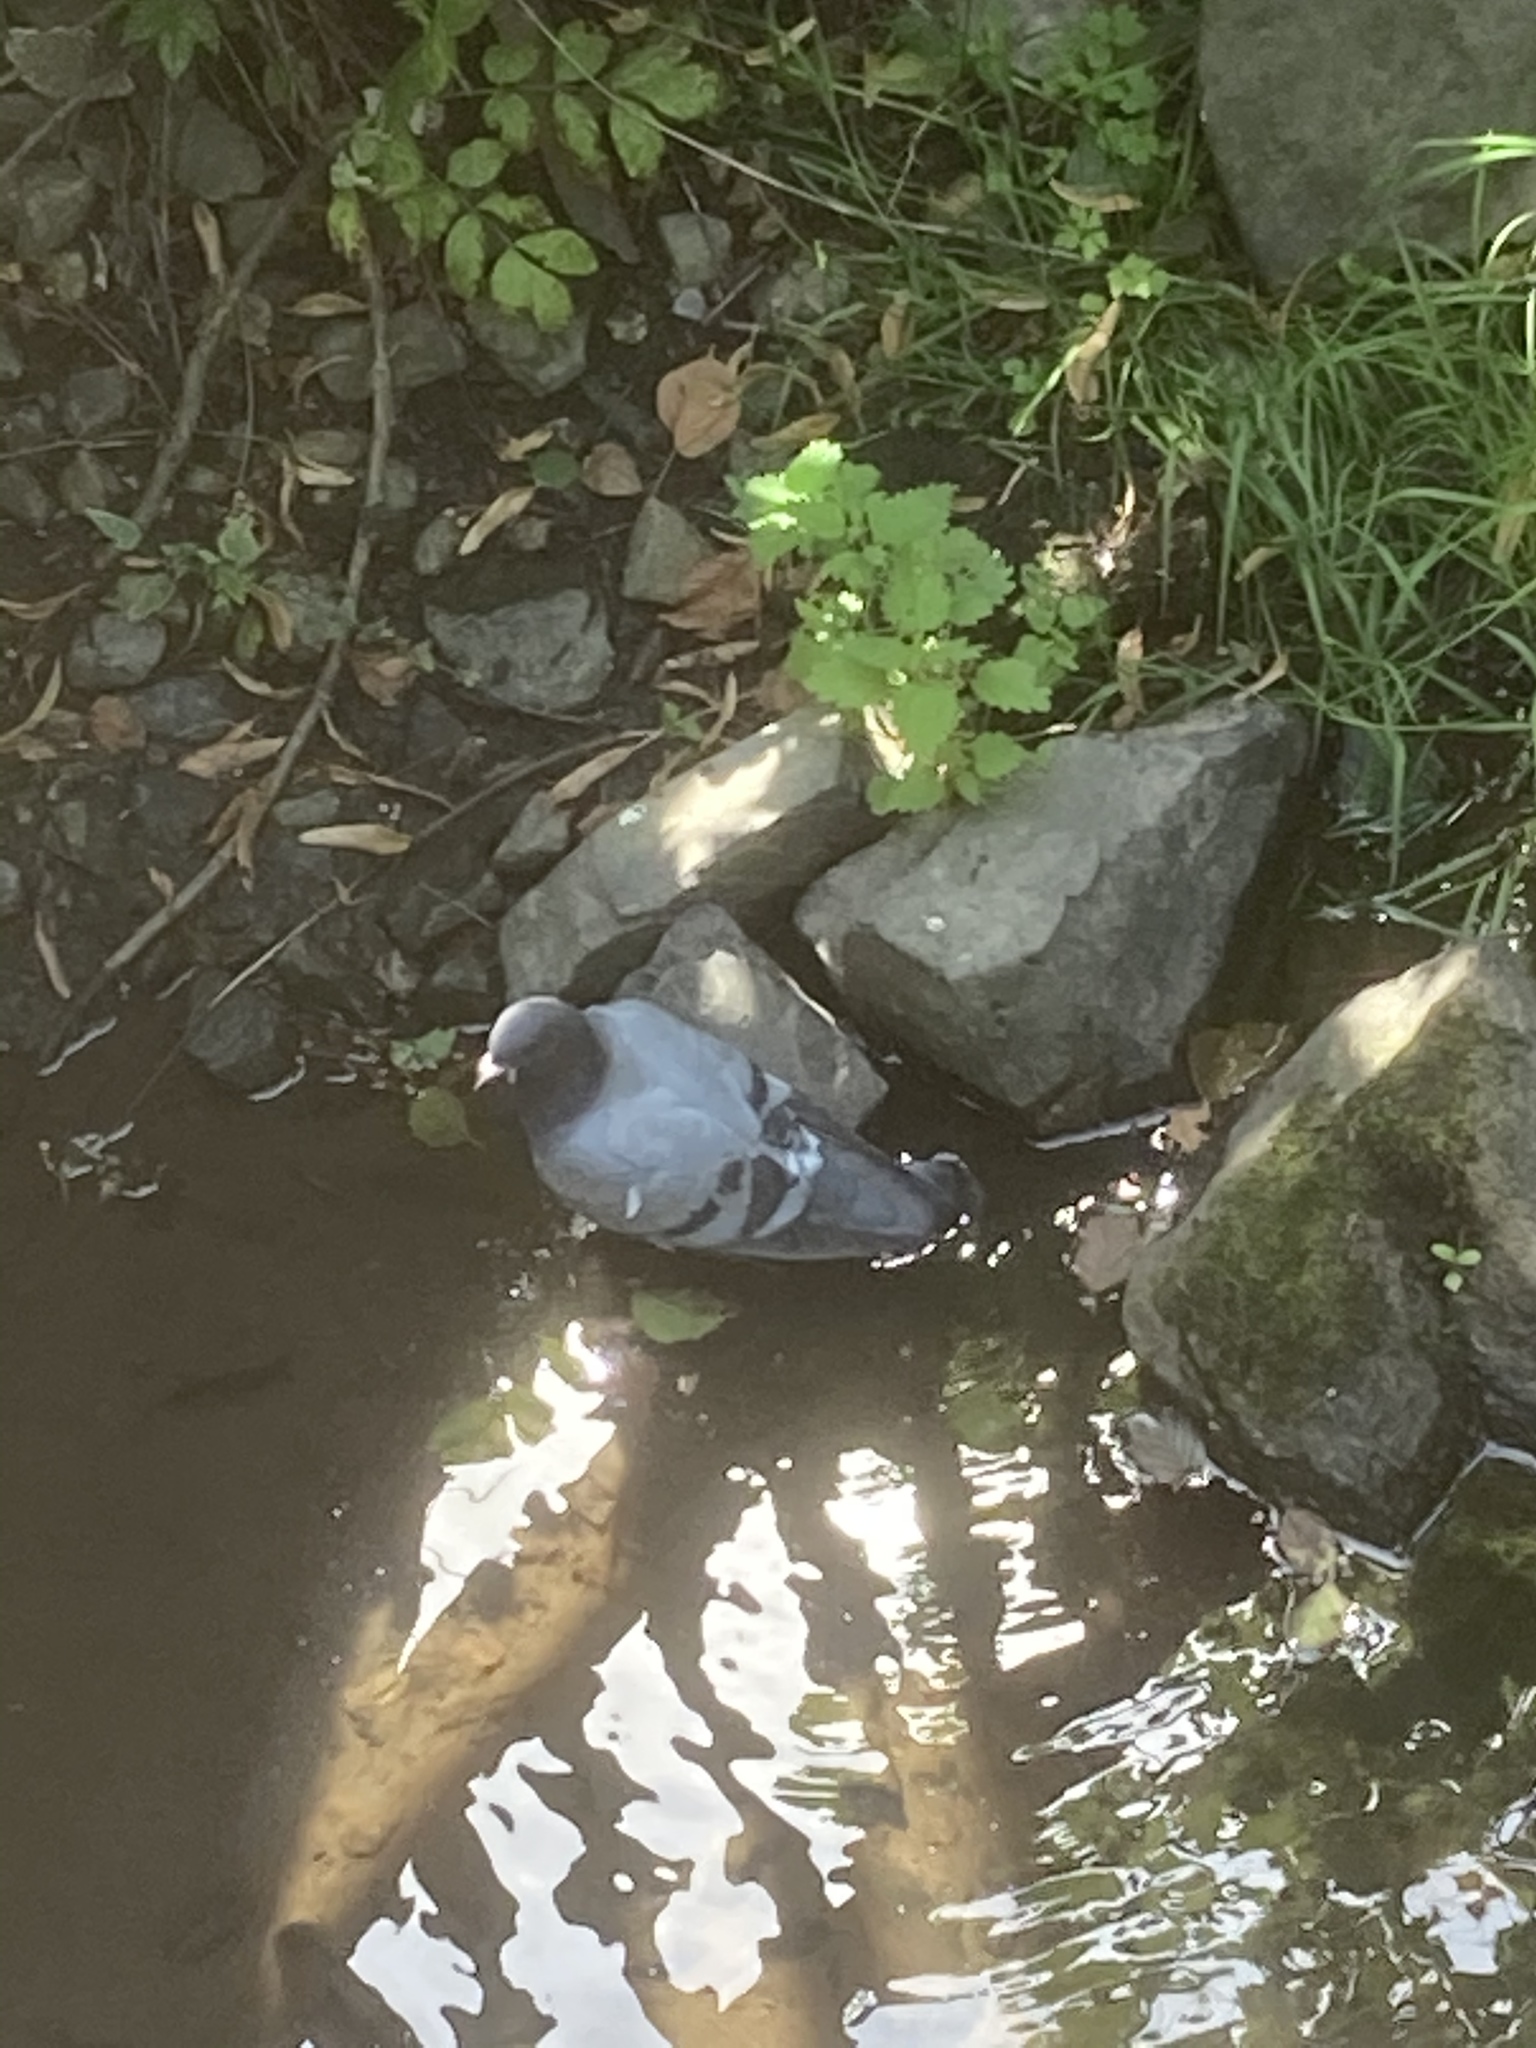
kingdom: Animalia
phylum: Chordata
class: Aves
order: Columbiformes
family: Columbidae
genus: Columba
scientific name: Columba livia
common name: Rock pigeon
